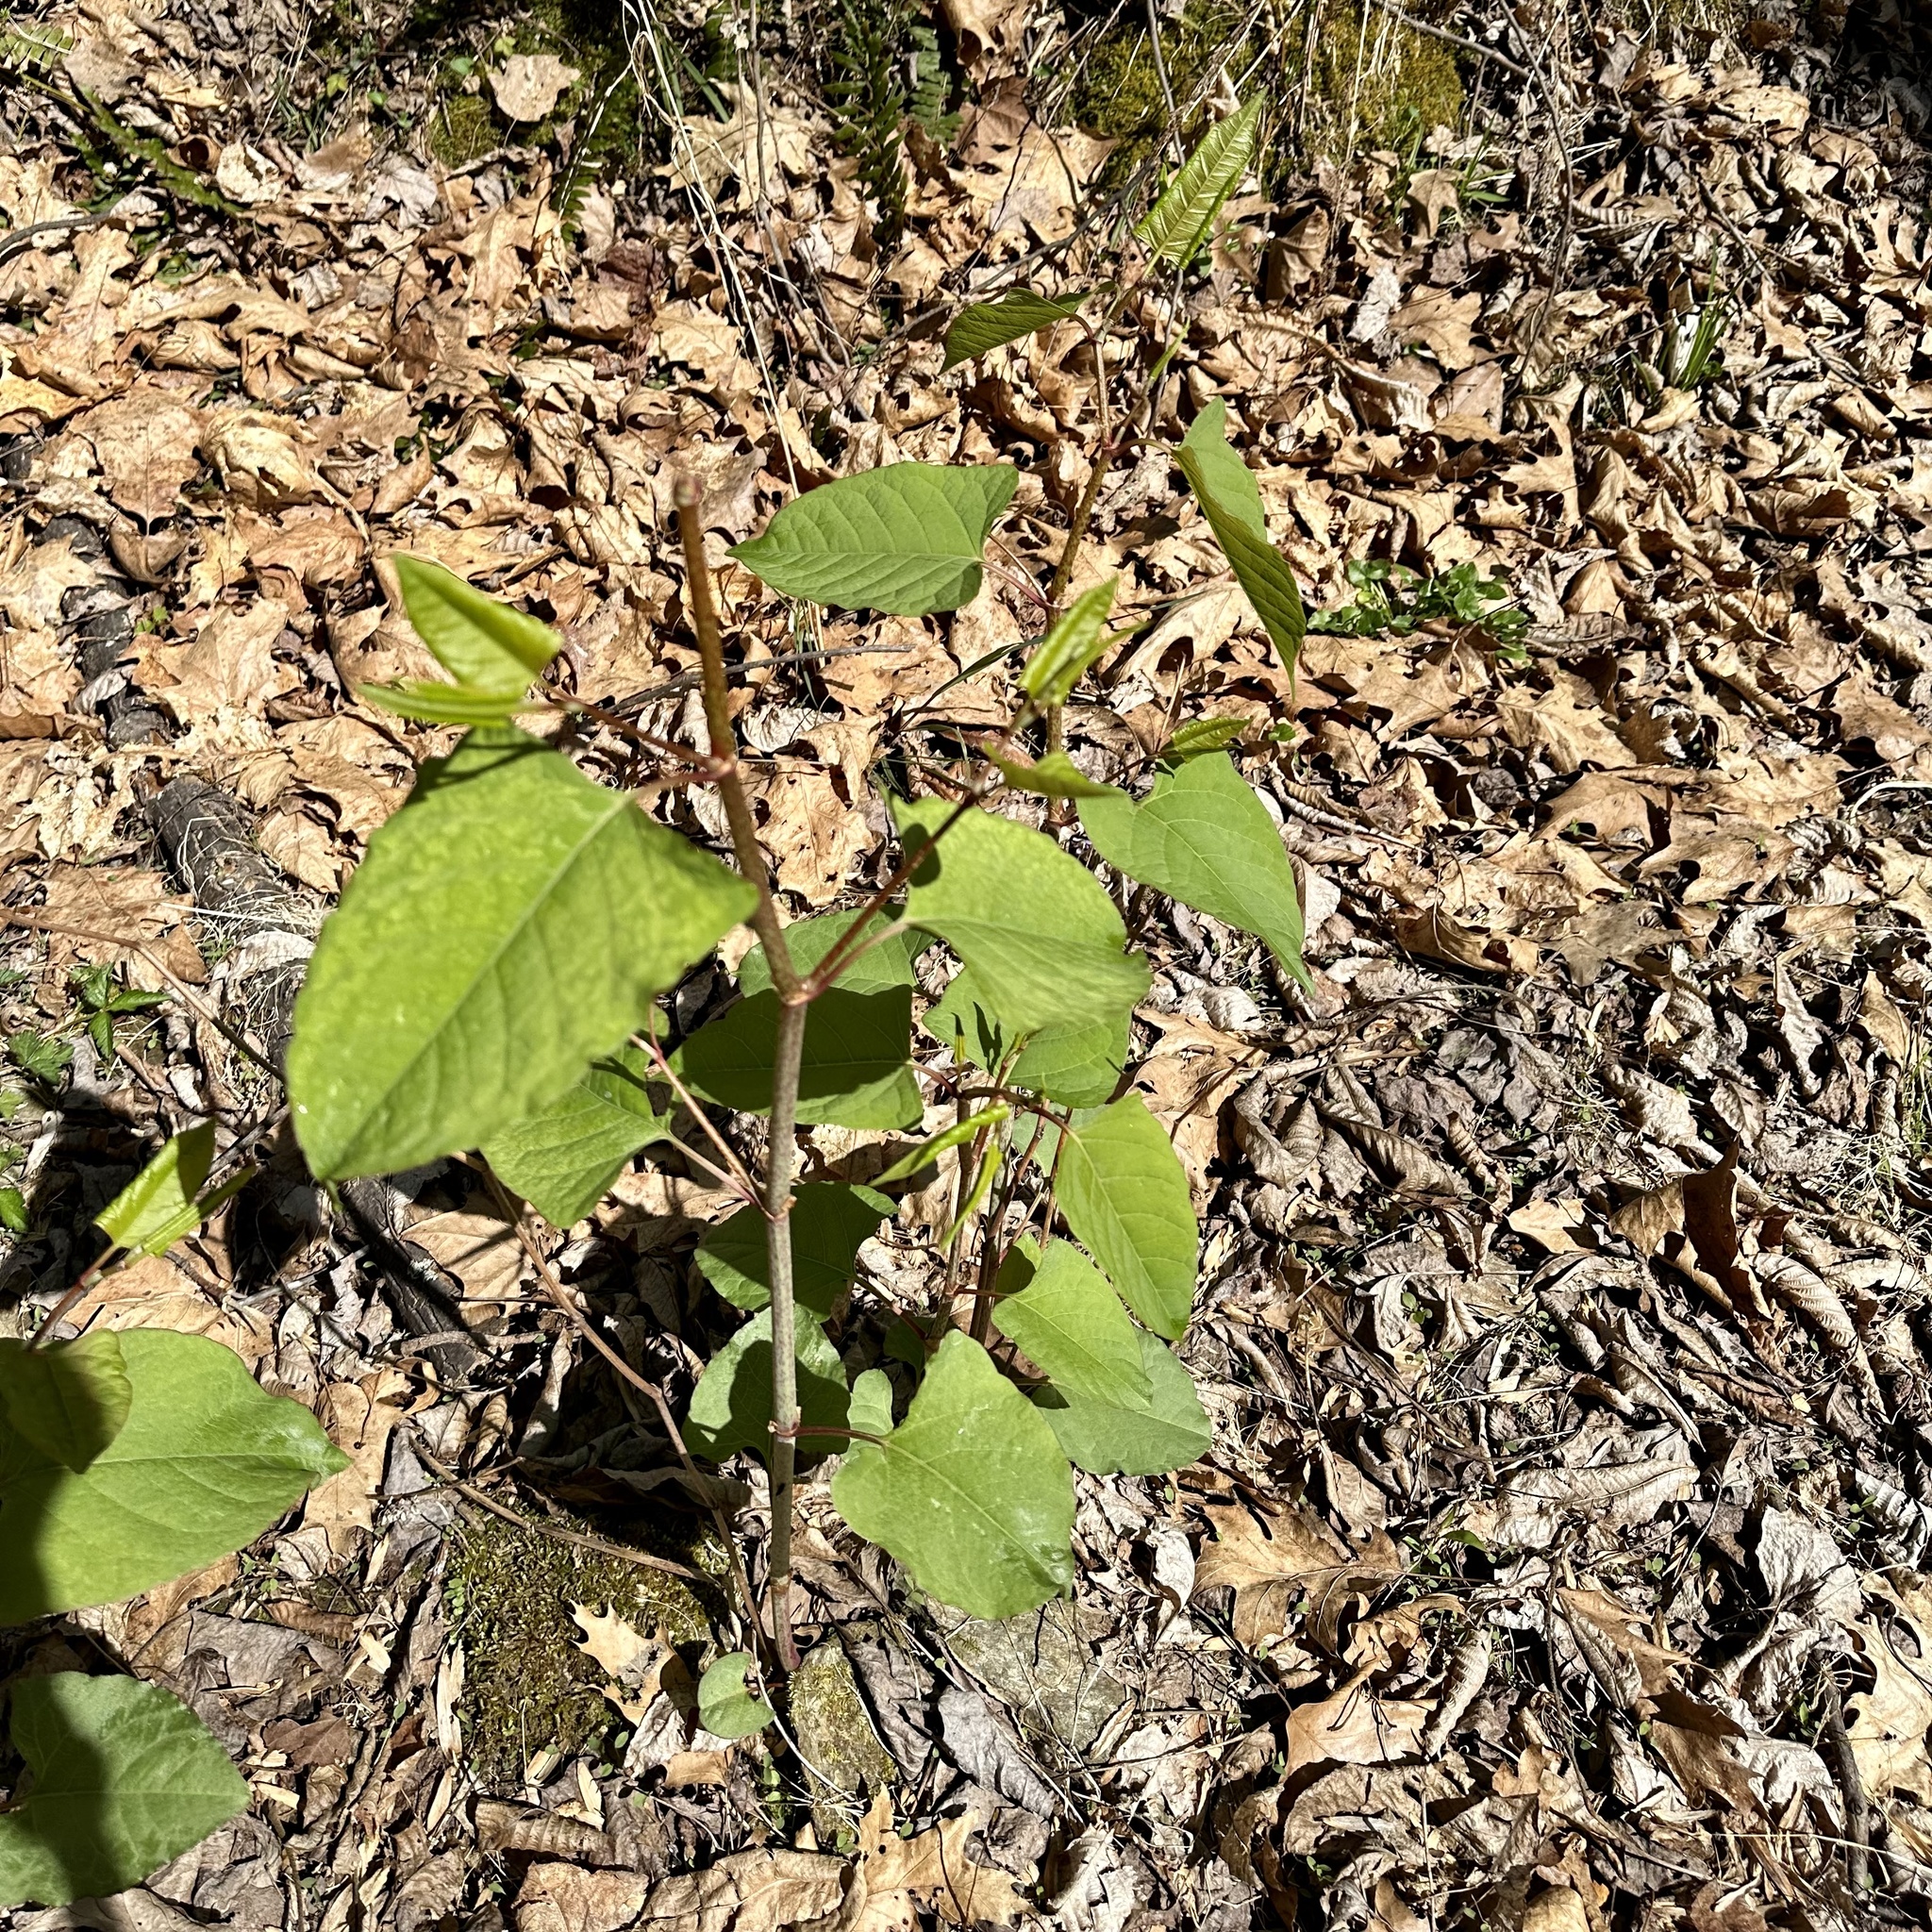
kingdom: Plantae
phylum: Tracheophyta
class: Magnoliopsida
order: Caryophyllales
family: Polygonaceae
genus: Reynoutria
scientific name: Reynoutria japonica
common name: Japanese knotweed
